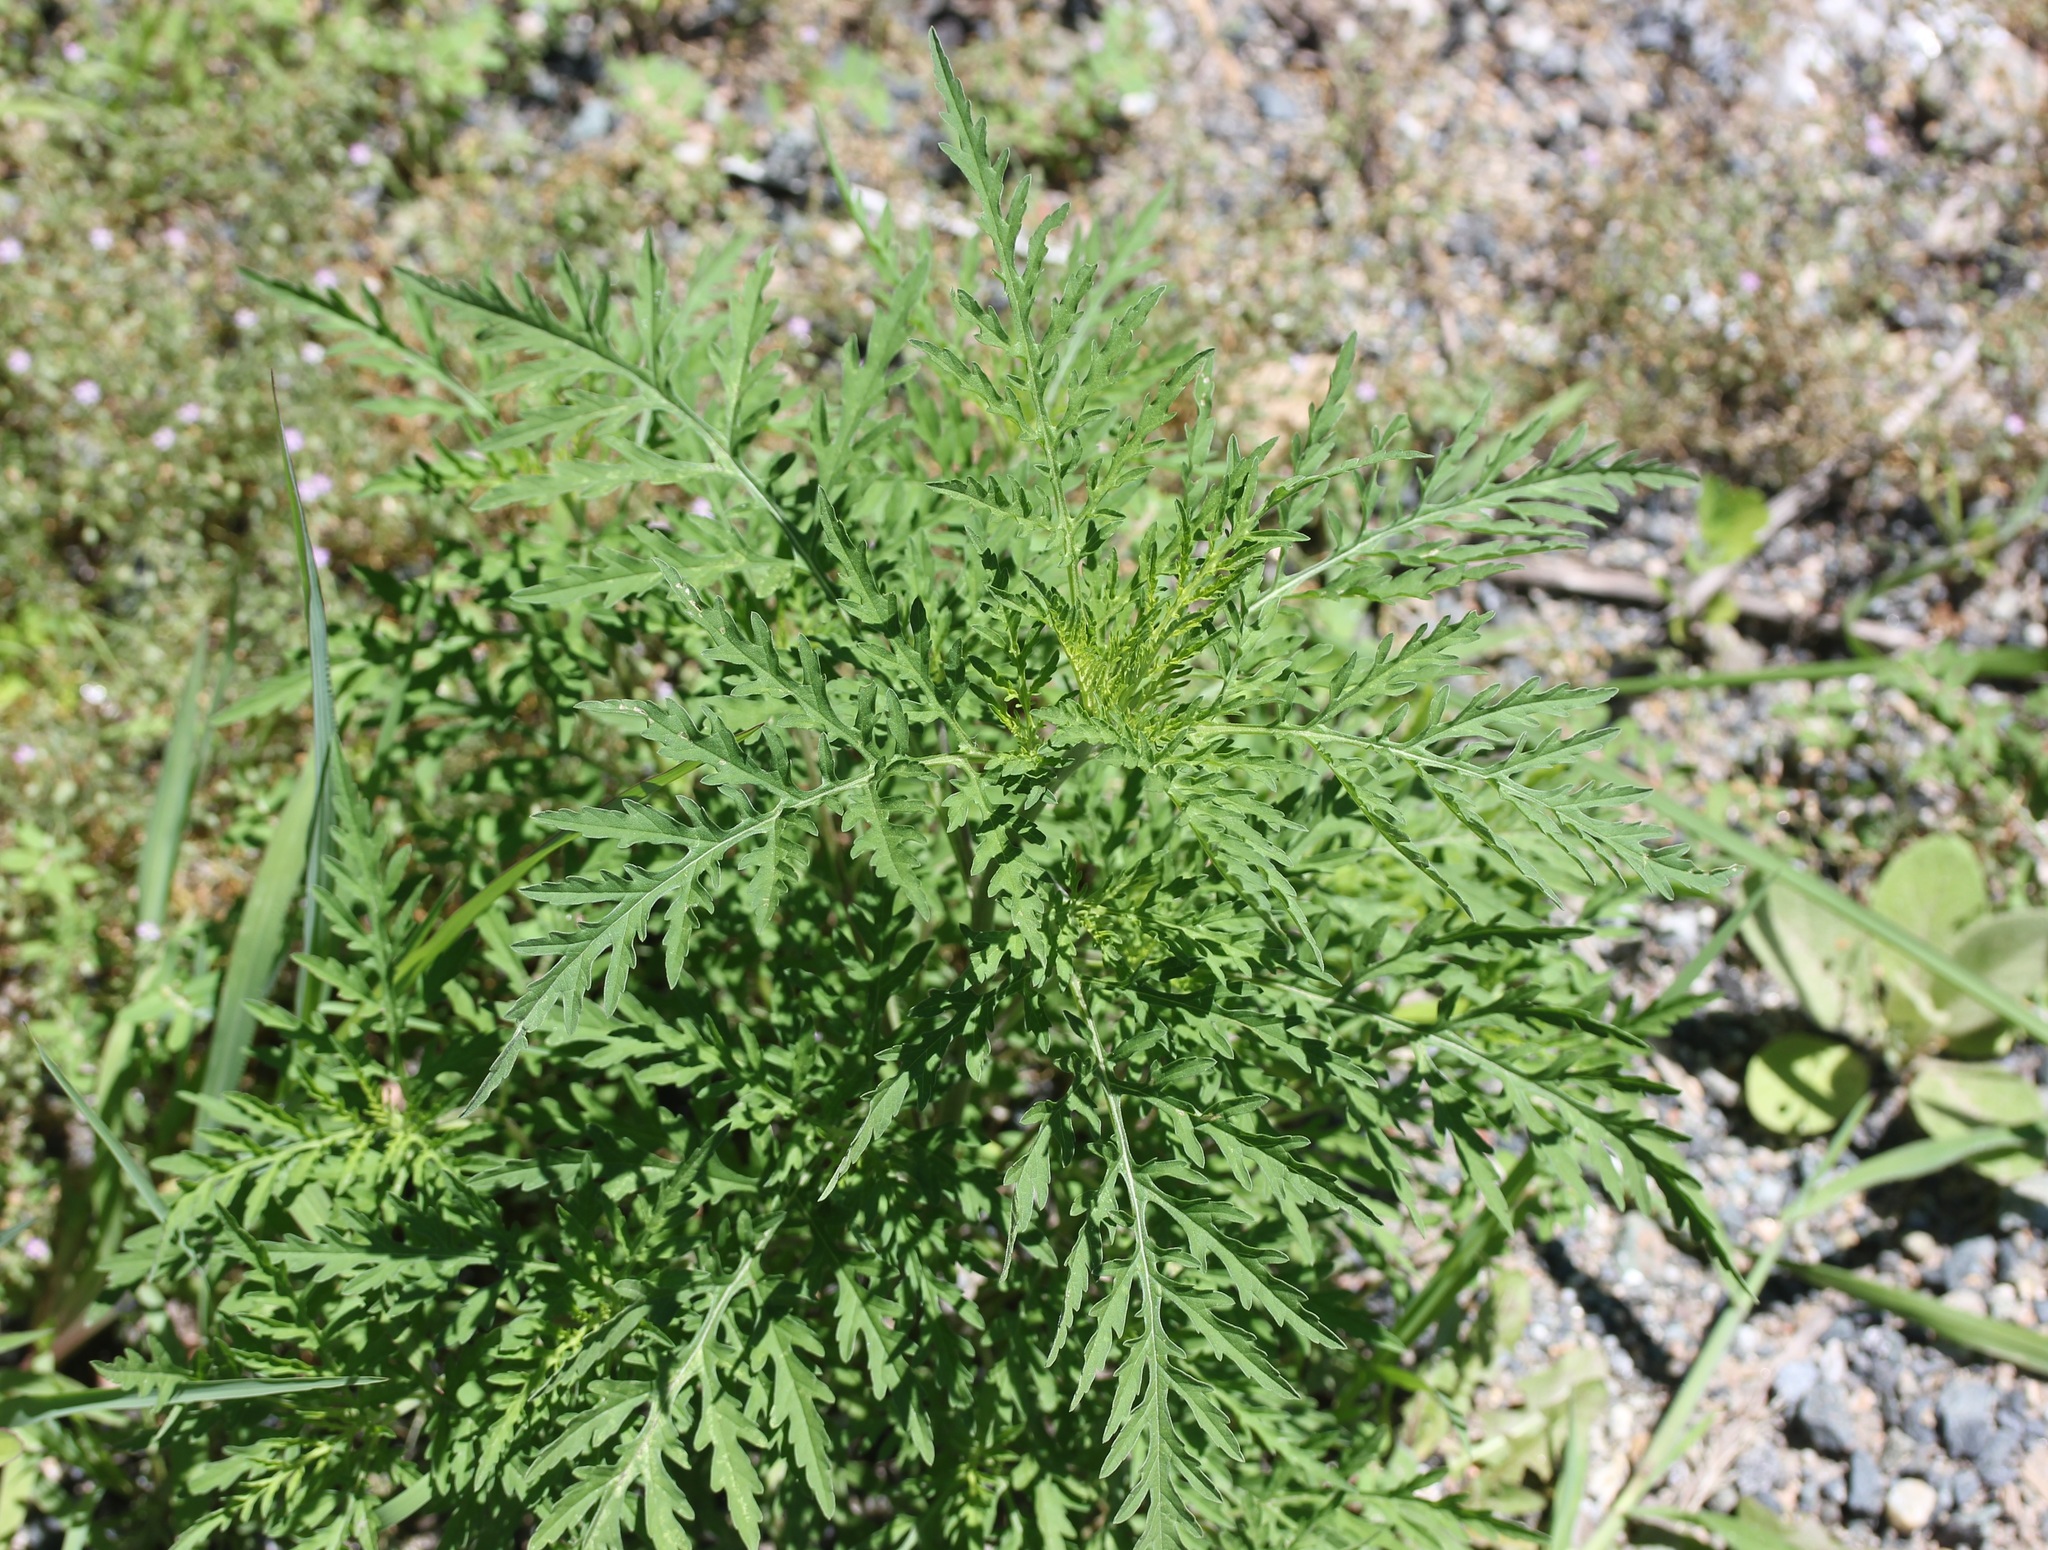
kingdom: Plantae
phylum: Tracheophyta
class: Magnoliopsida
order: Asterales
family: Asteraceae
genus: Ambrosia
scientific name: Ambrosia artemisiifolia
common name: Annual ragweed
